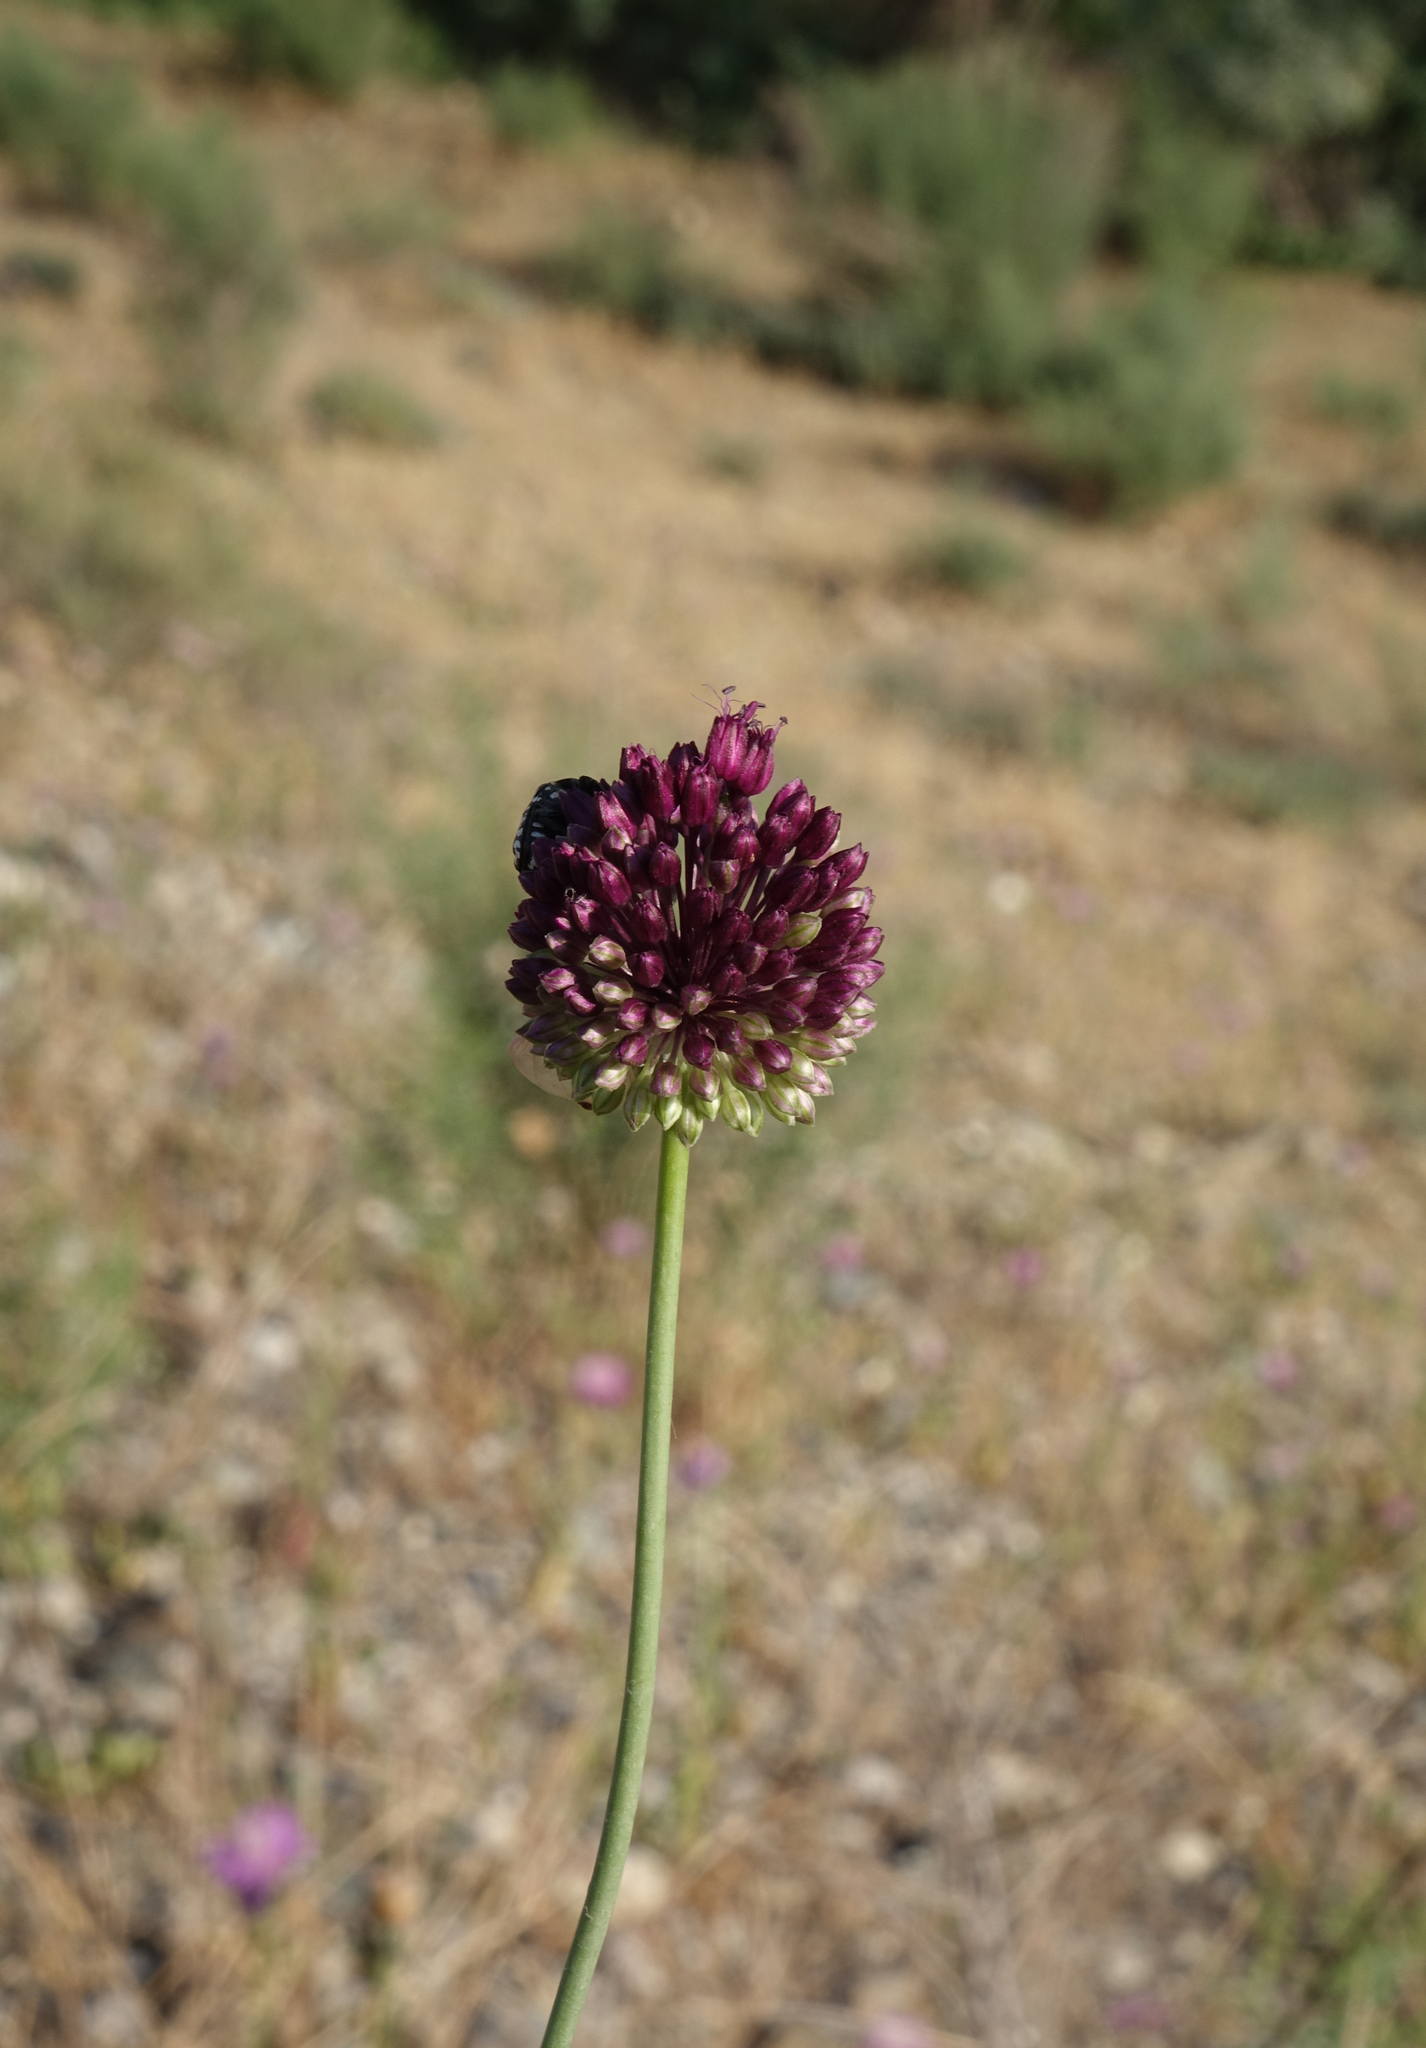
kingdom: Plantae
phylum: Tracheophyta
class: Liliopsida
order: Asparagales
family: Amaryllidaceae
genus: Allium
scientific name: Allium atroviolaceum
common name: Broadleaf wild leek
